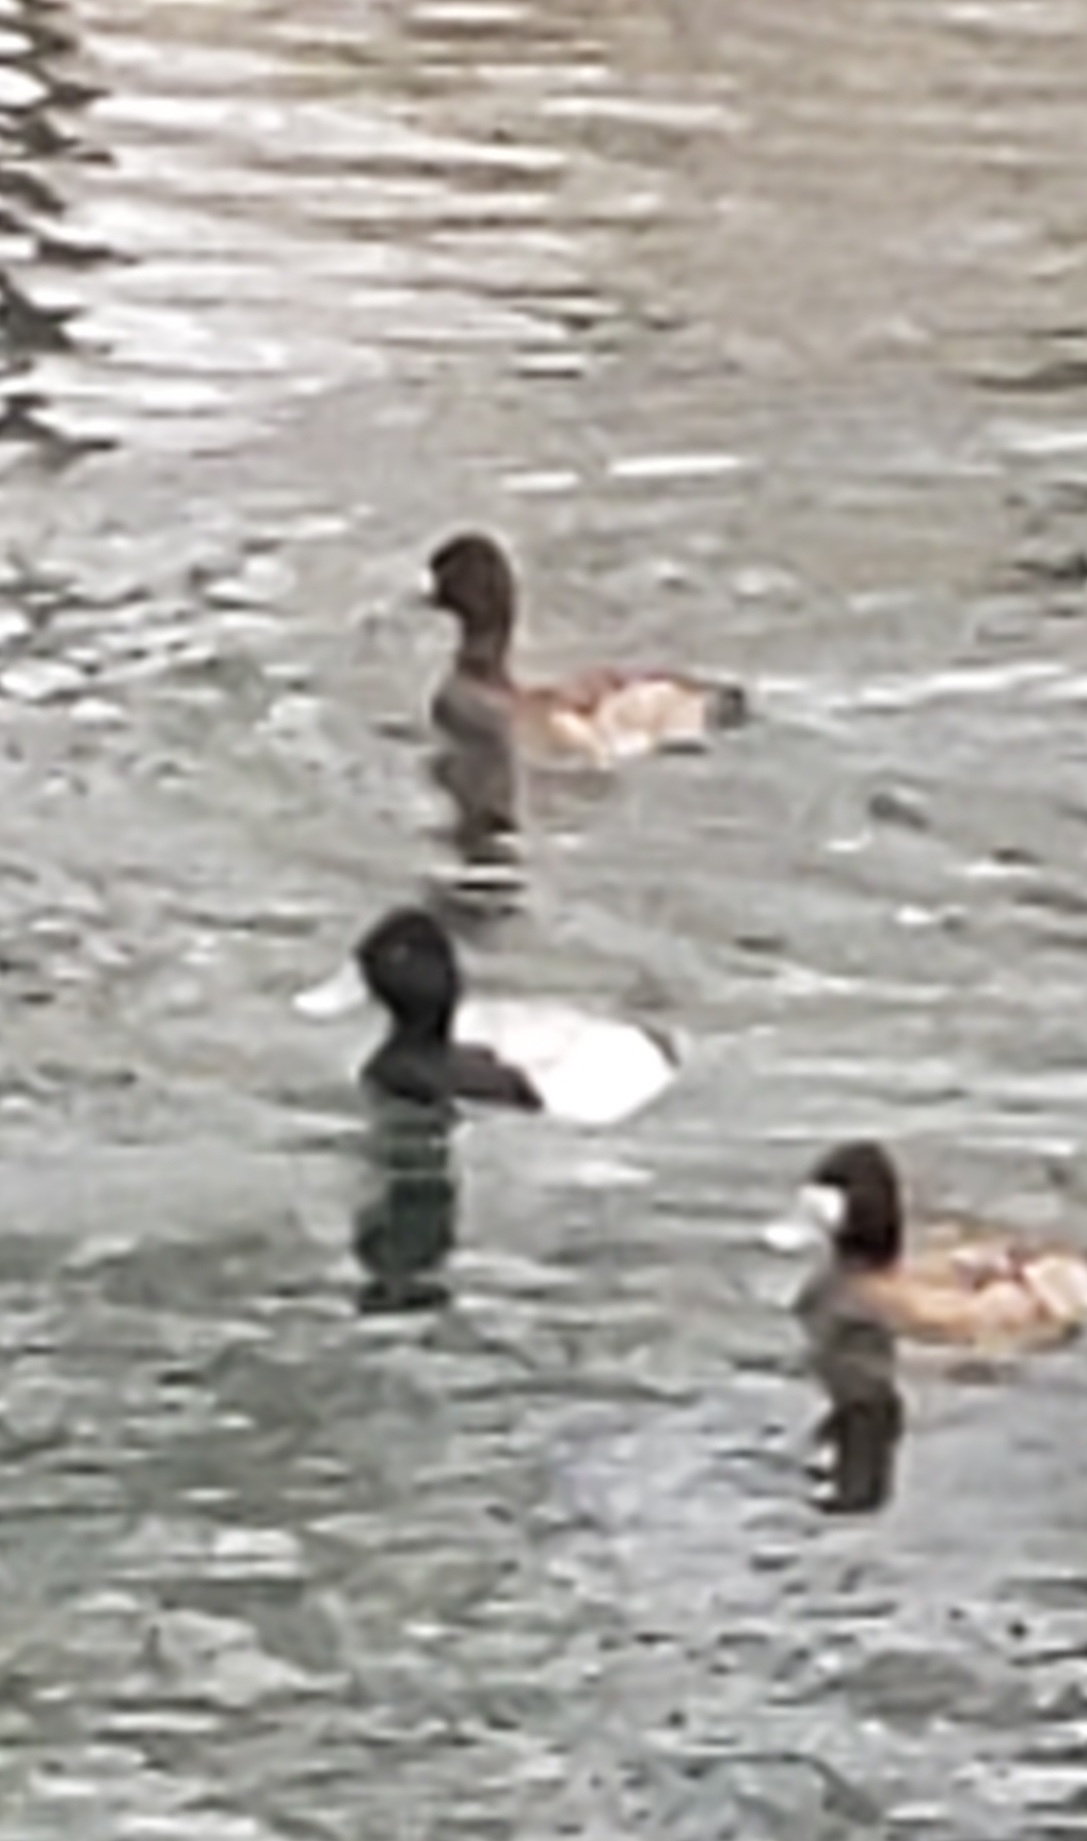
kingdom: Animalia
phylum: Chordata
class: Aves
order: Anseriformes
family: Anatidae
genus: Aythya
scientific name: Aythya affinis
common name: Lesser scaup
